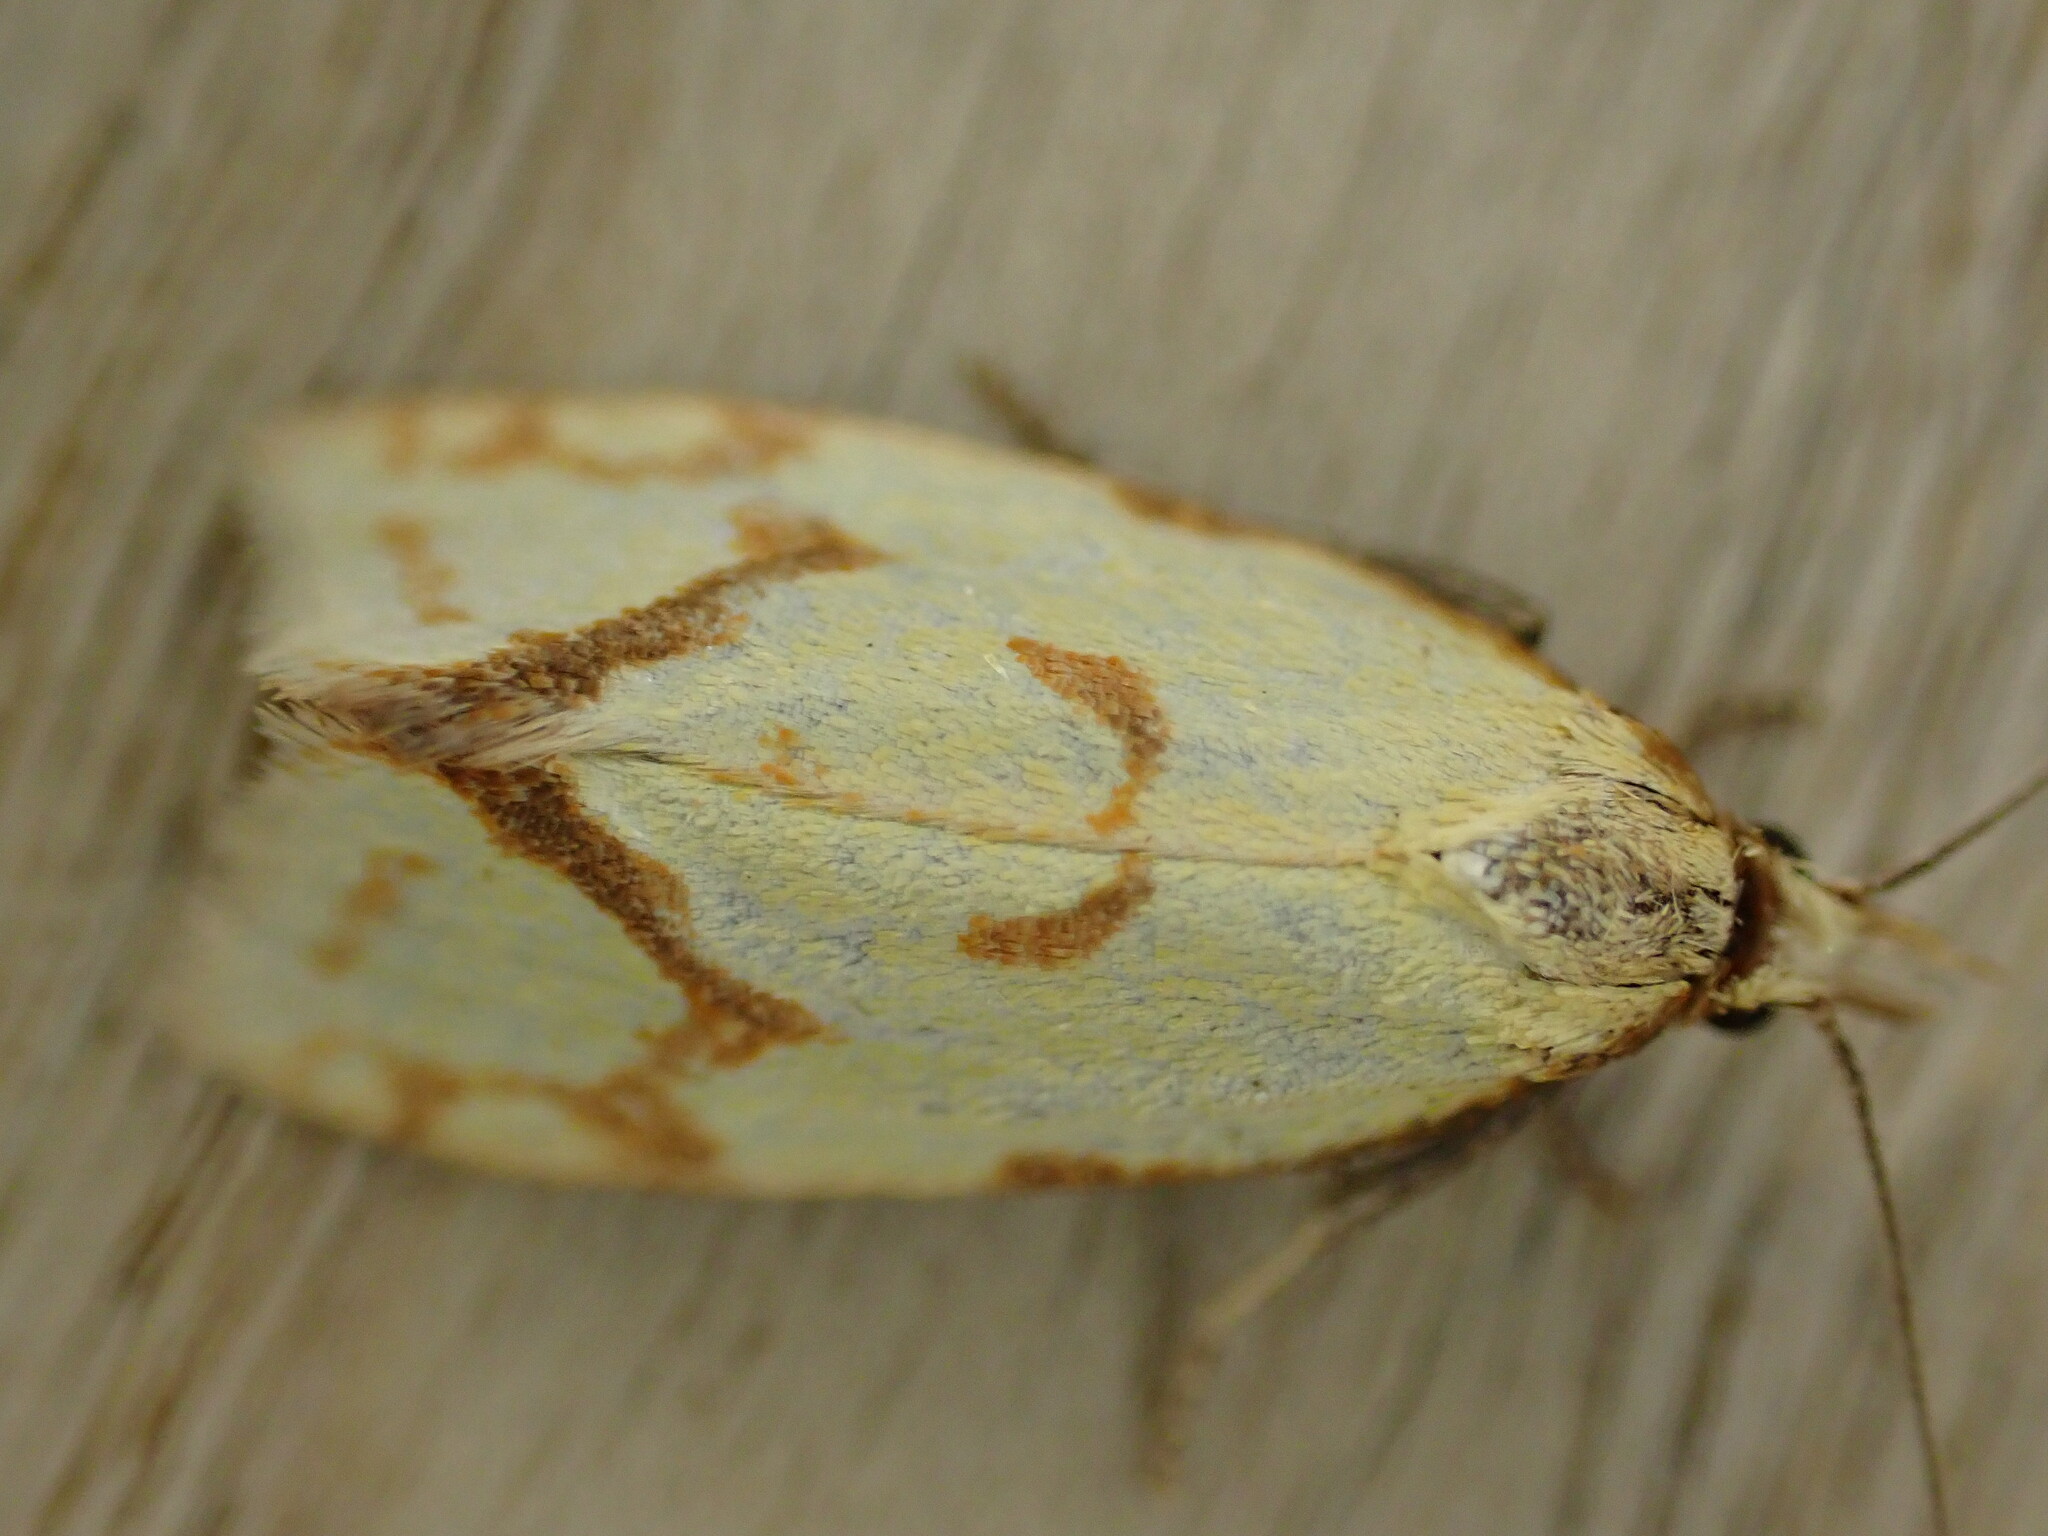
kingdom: Animalia
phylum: Arthropoda
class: Insecta
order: Lepidoptera
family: Tortricidae
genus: Agapeta
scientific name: Agapeta hamana
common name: Common yellow conch
